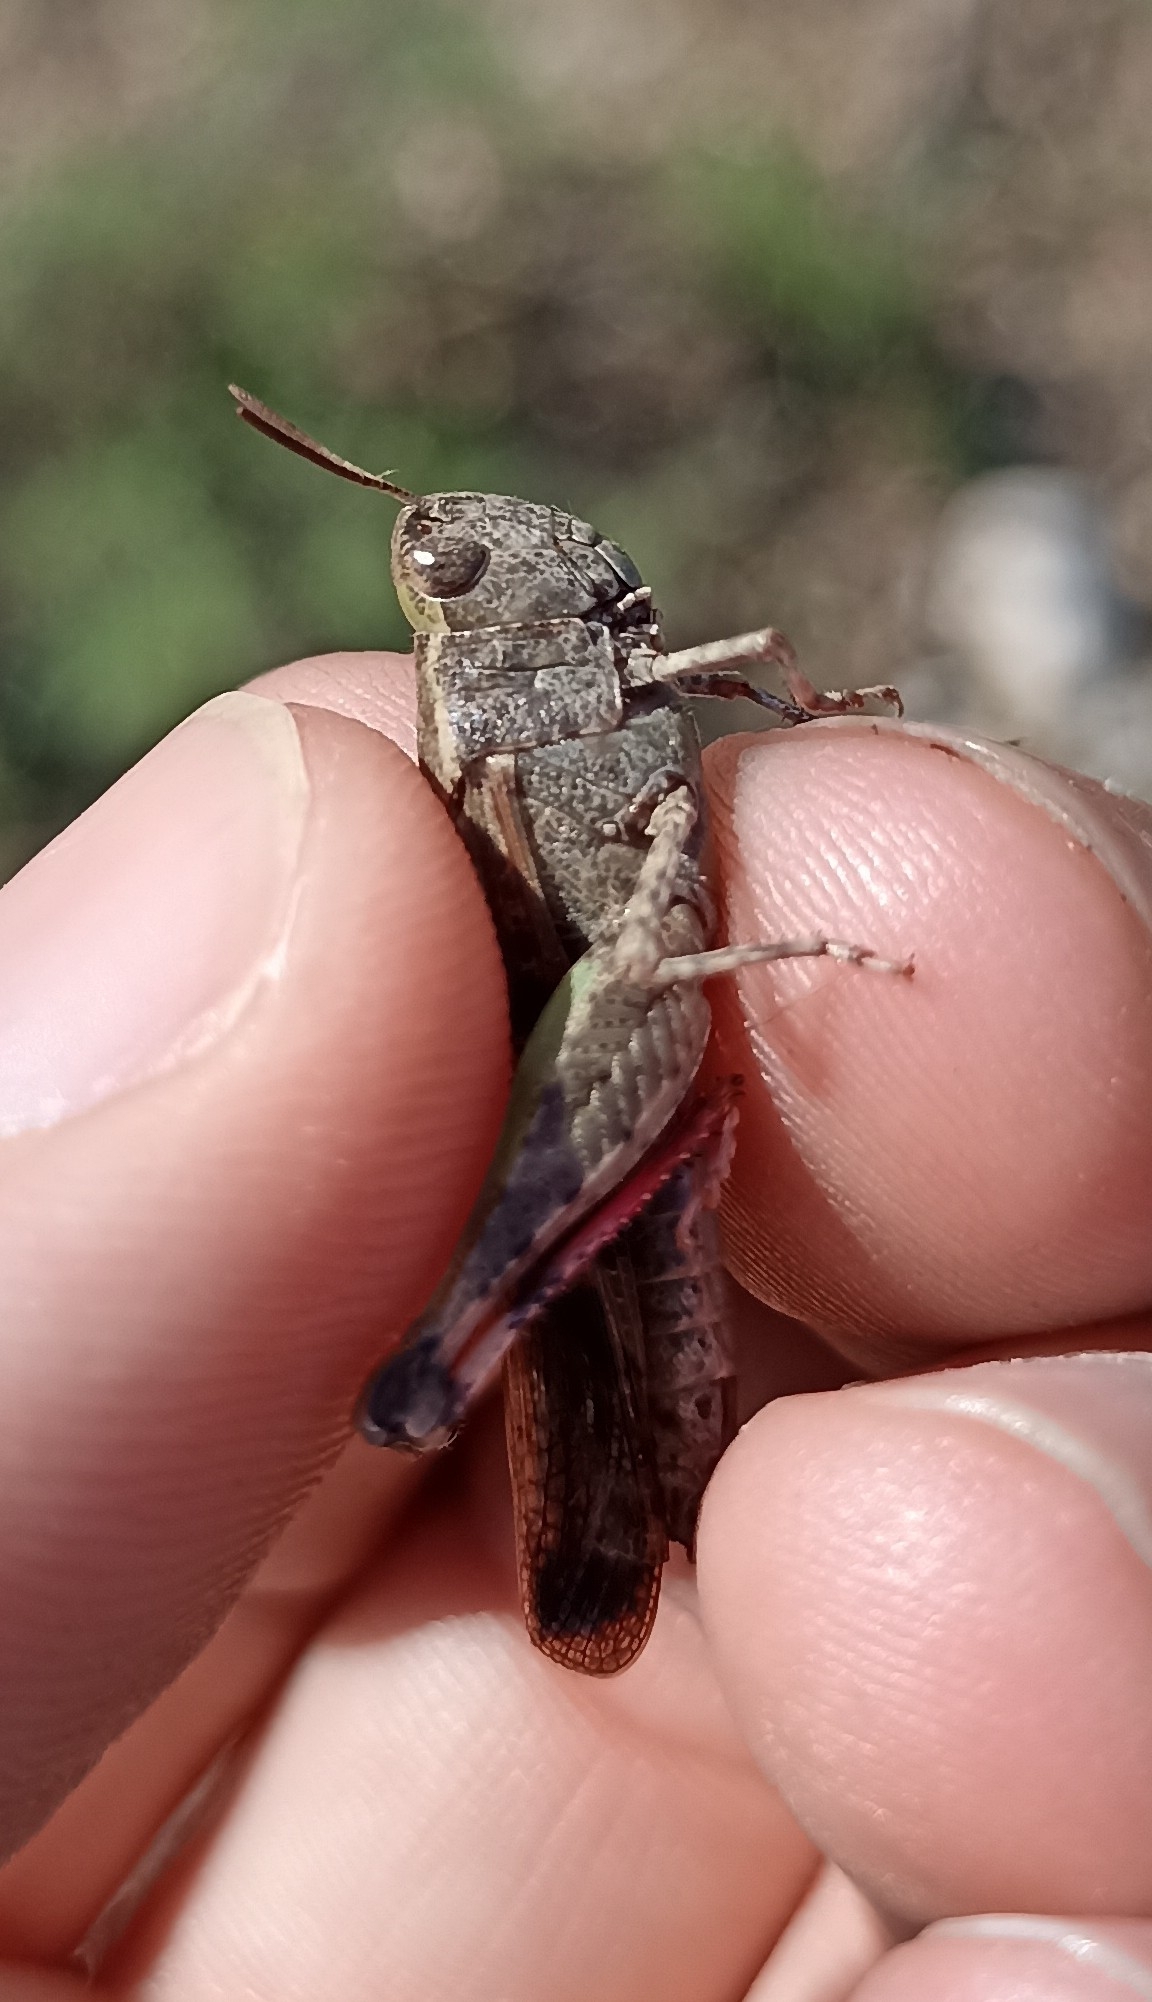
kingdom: Animalia
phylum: Arthropoda
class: Insecta
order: Orthoptera
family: Acrididae
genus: Aiolopus
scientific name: Aiolopus strepens
